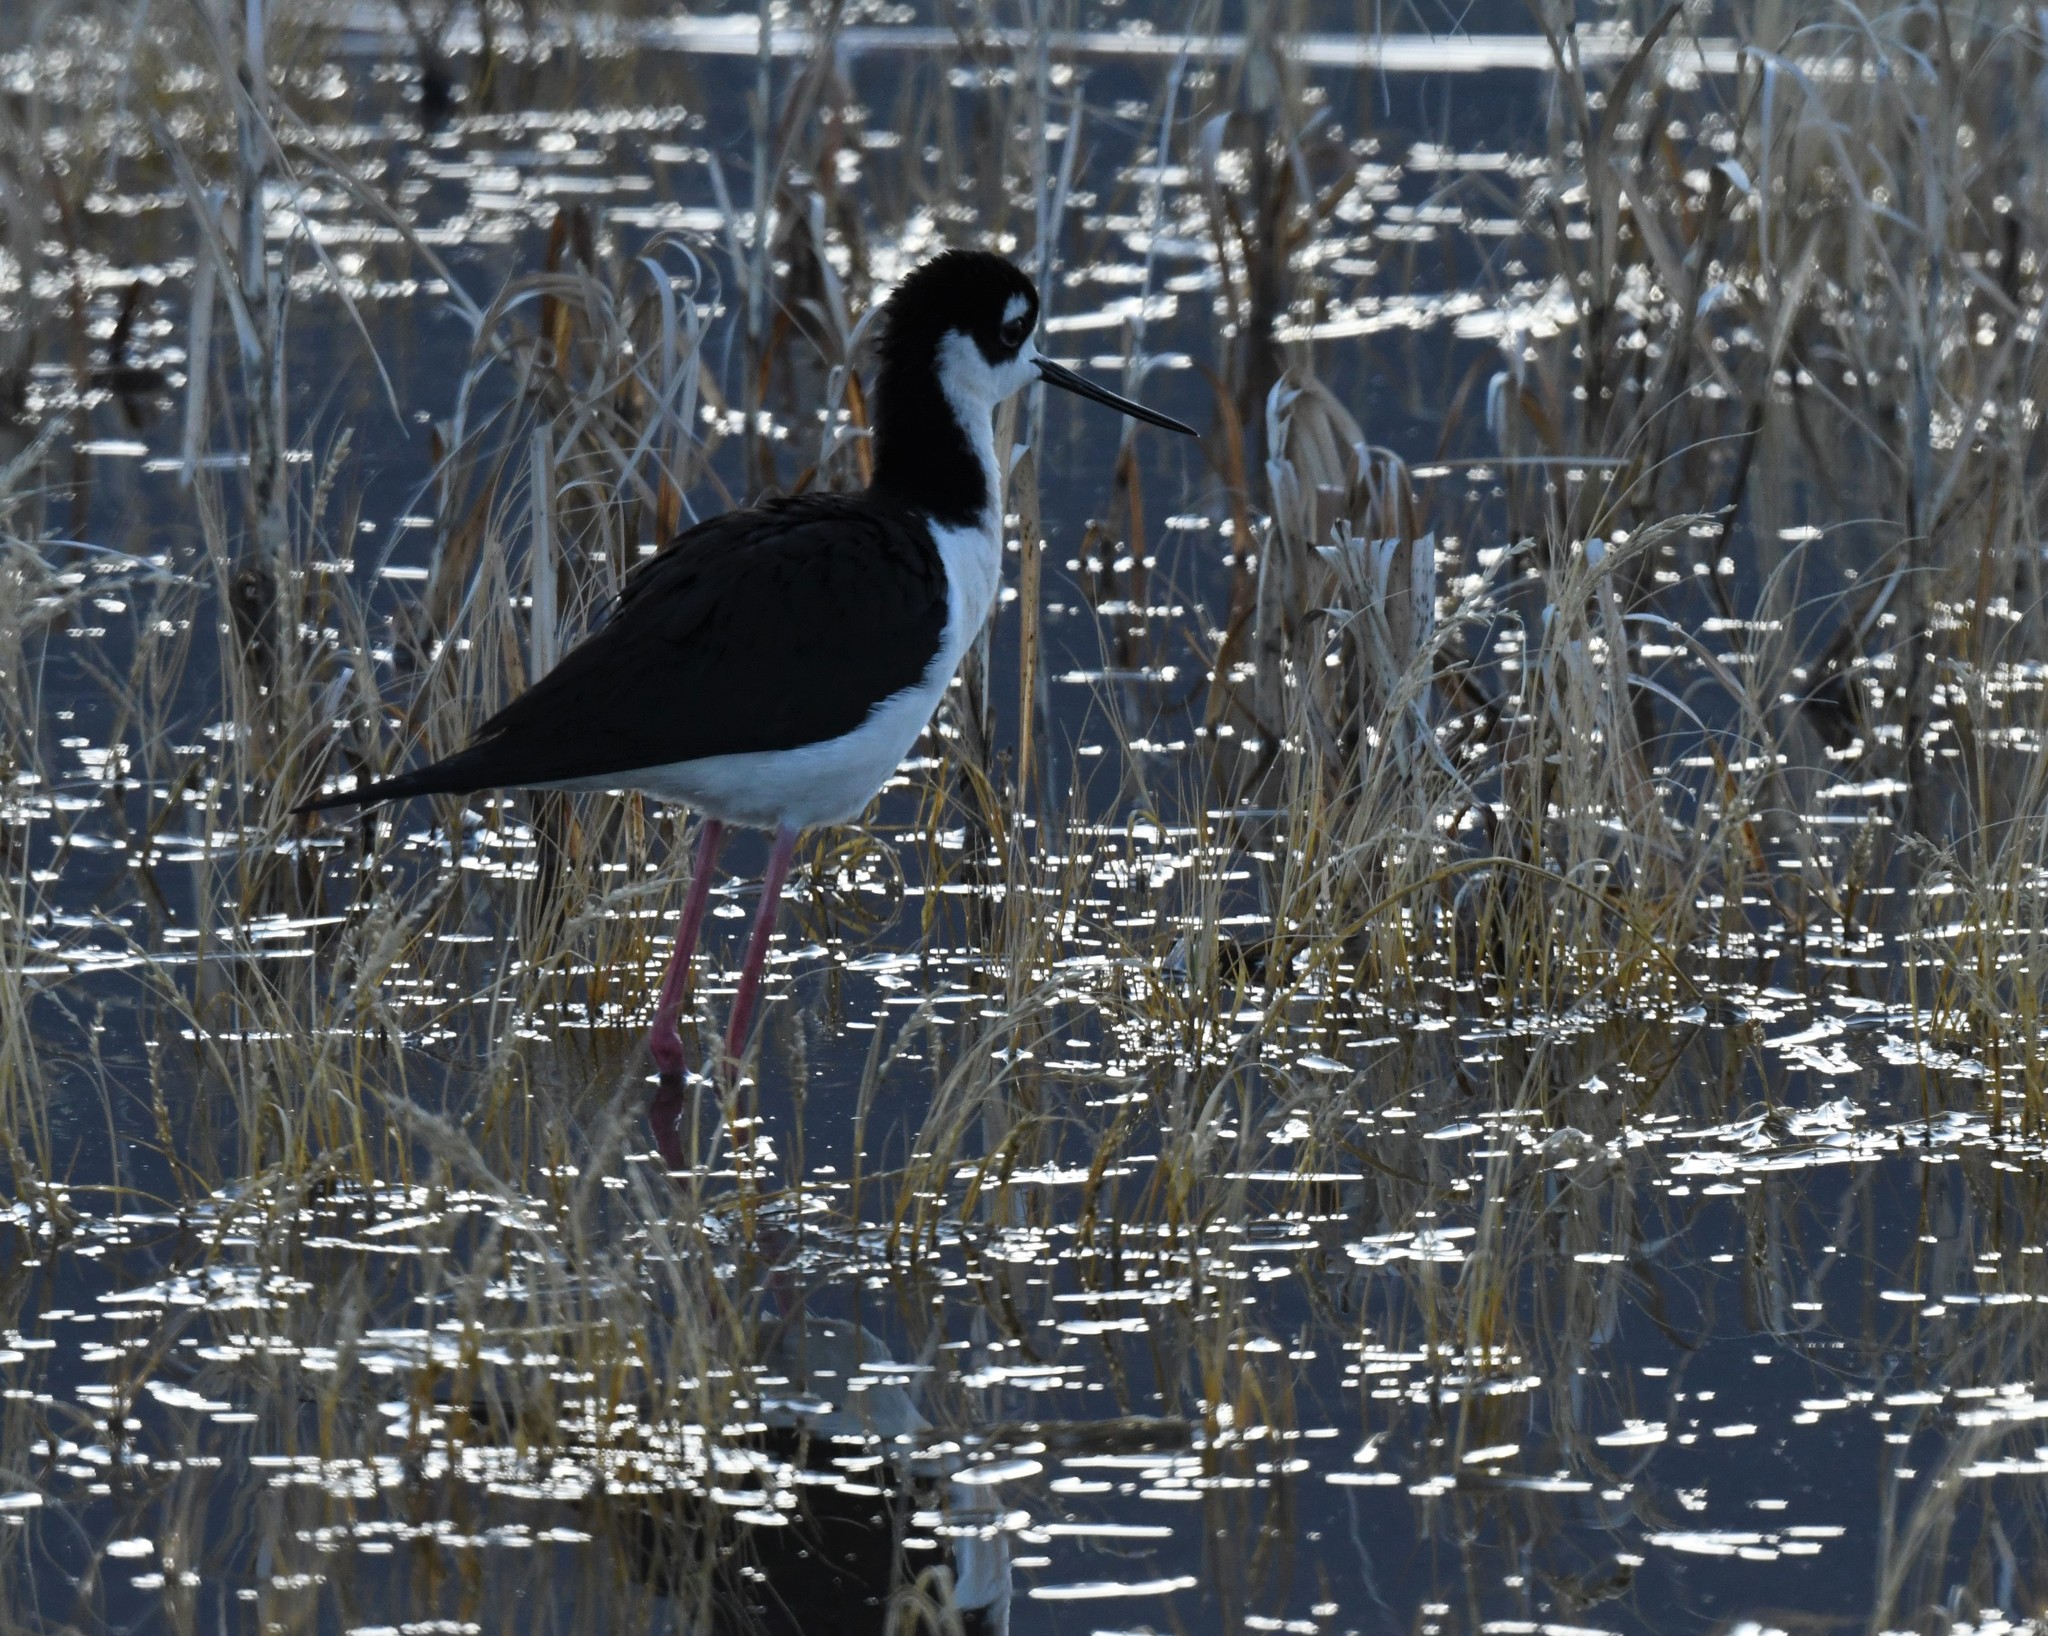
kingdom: Animalia
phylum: Chordata
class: Aves
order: Charadriiformes
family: Recurvirostridae
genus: Himantopus
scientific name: Himantopus mexicanus
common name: Black-necked stilt
